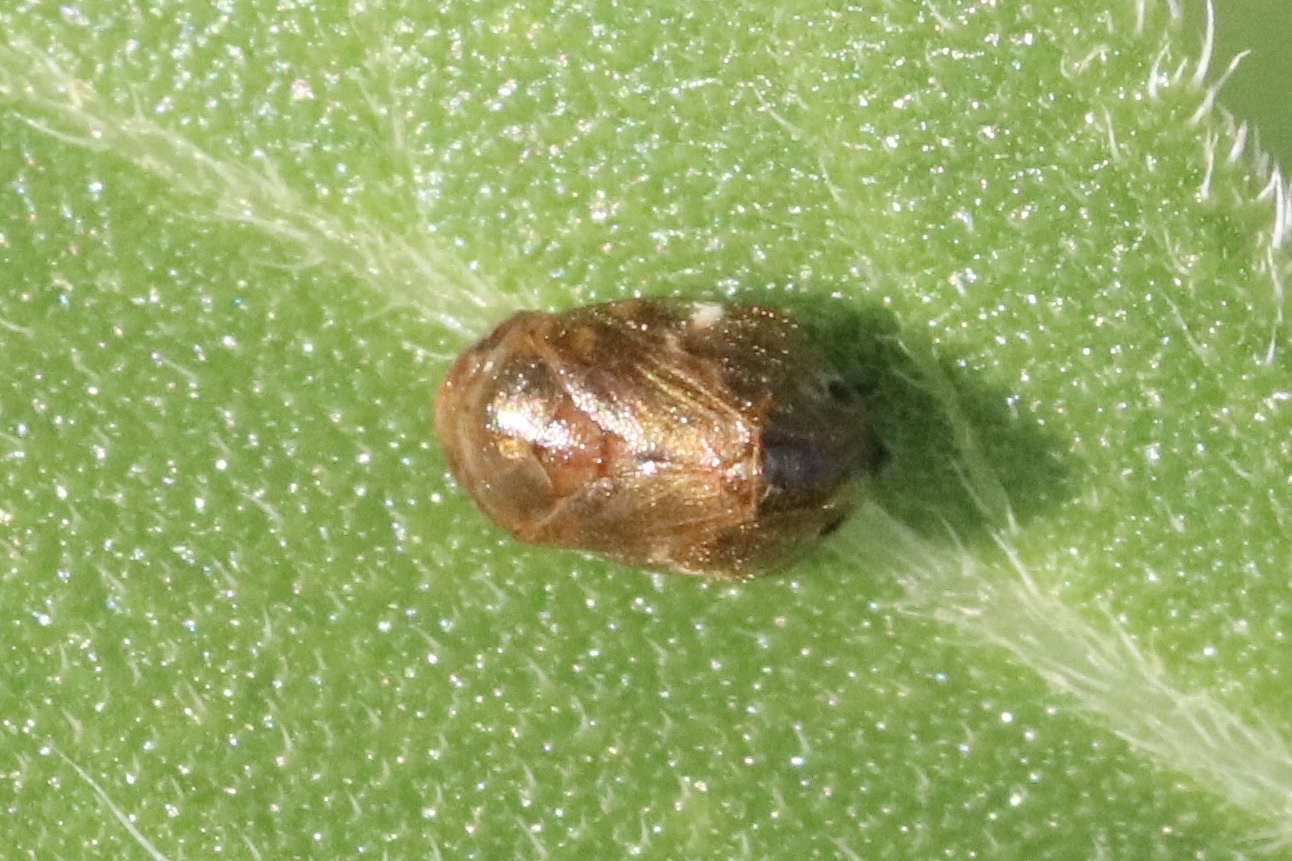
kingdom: Animalia
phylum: Arthropoda
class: Insecta
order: Hemiptera
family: Clastopteridae
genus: Clastoptera
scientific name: Clastoptera xanthocephala
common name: Sunflower spittlebug
